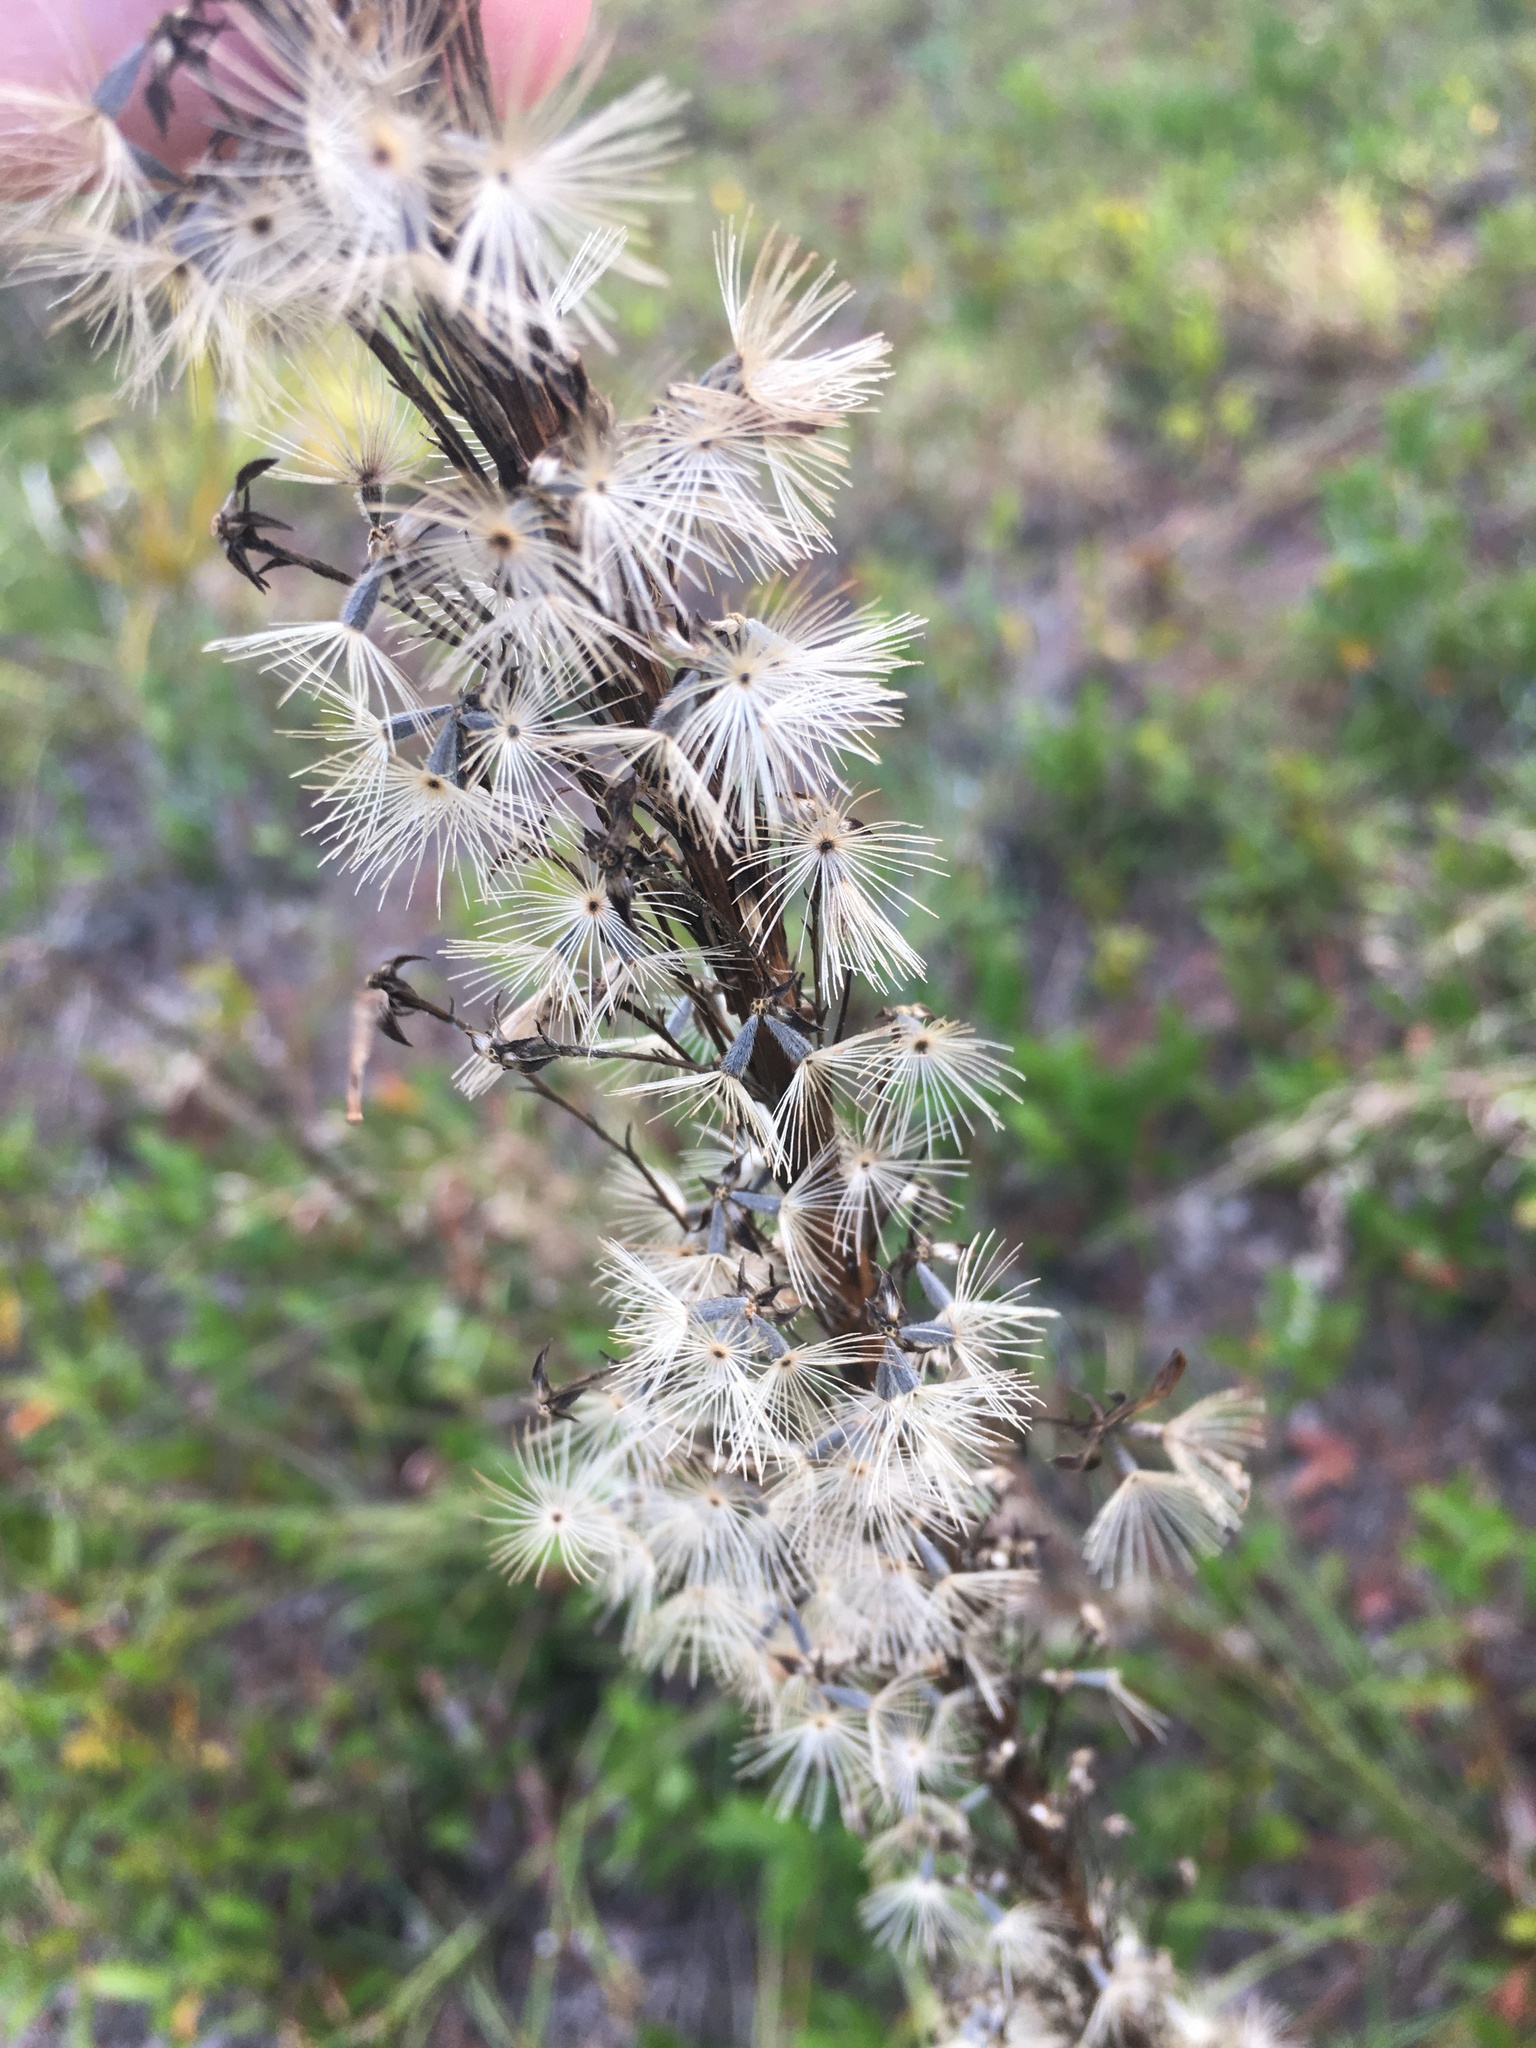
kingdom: Plantae
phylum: Tracheophyta
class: Magnoliopsida
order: Asterales
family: Asteraceae
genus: Liatris
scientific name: Liatris laevigata
